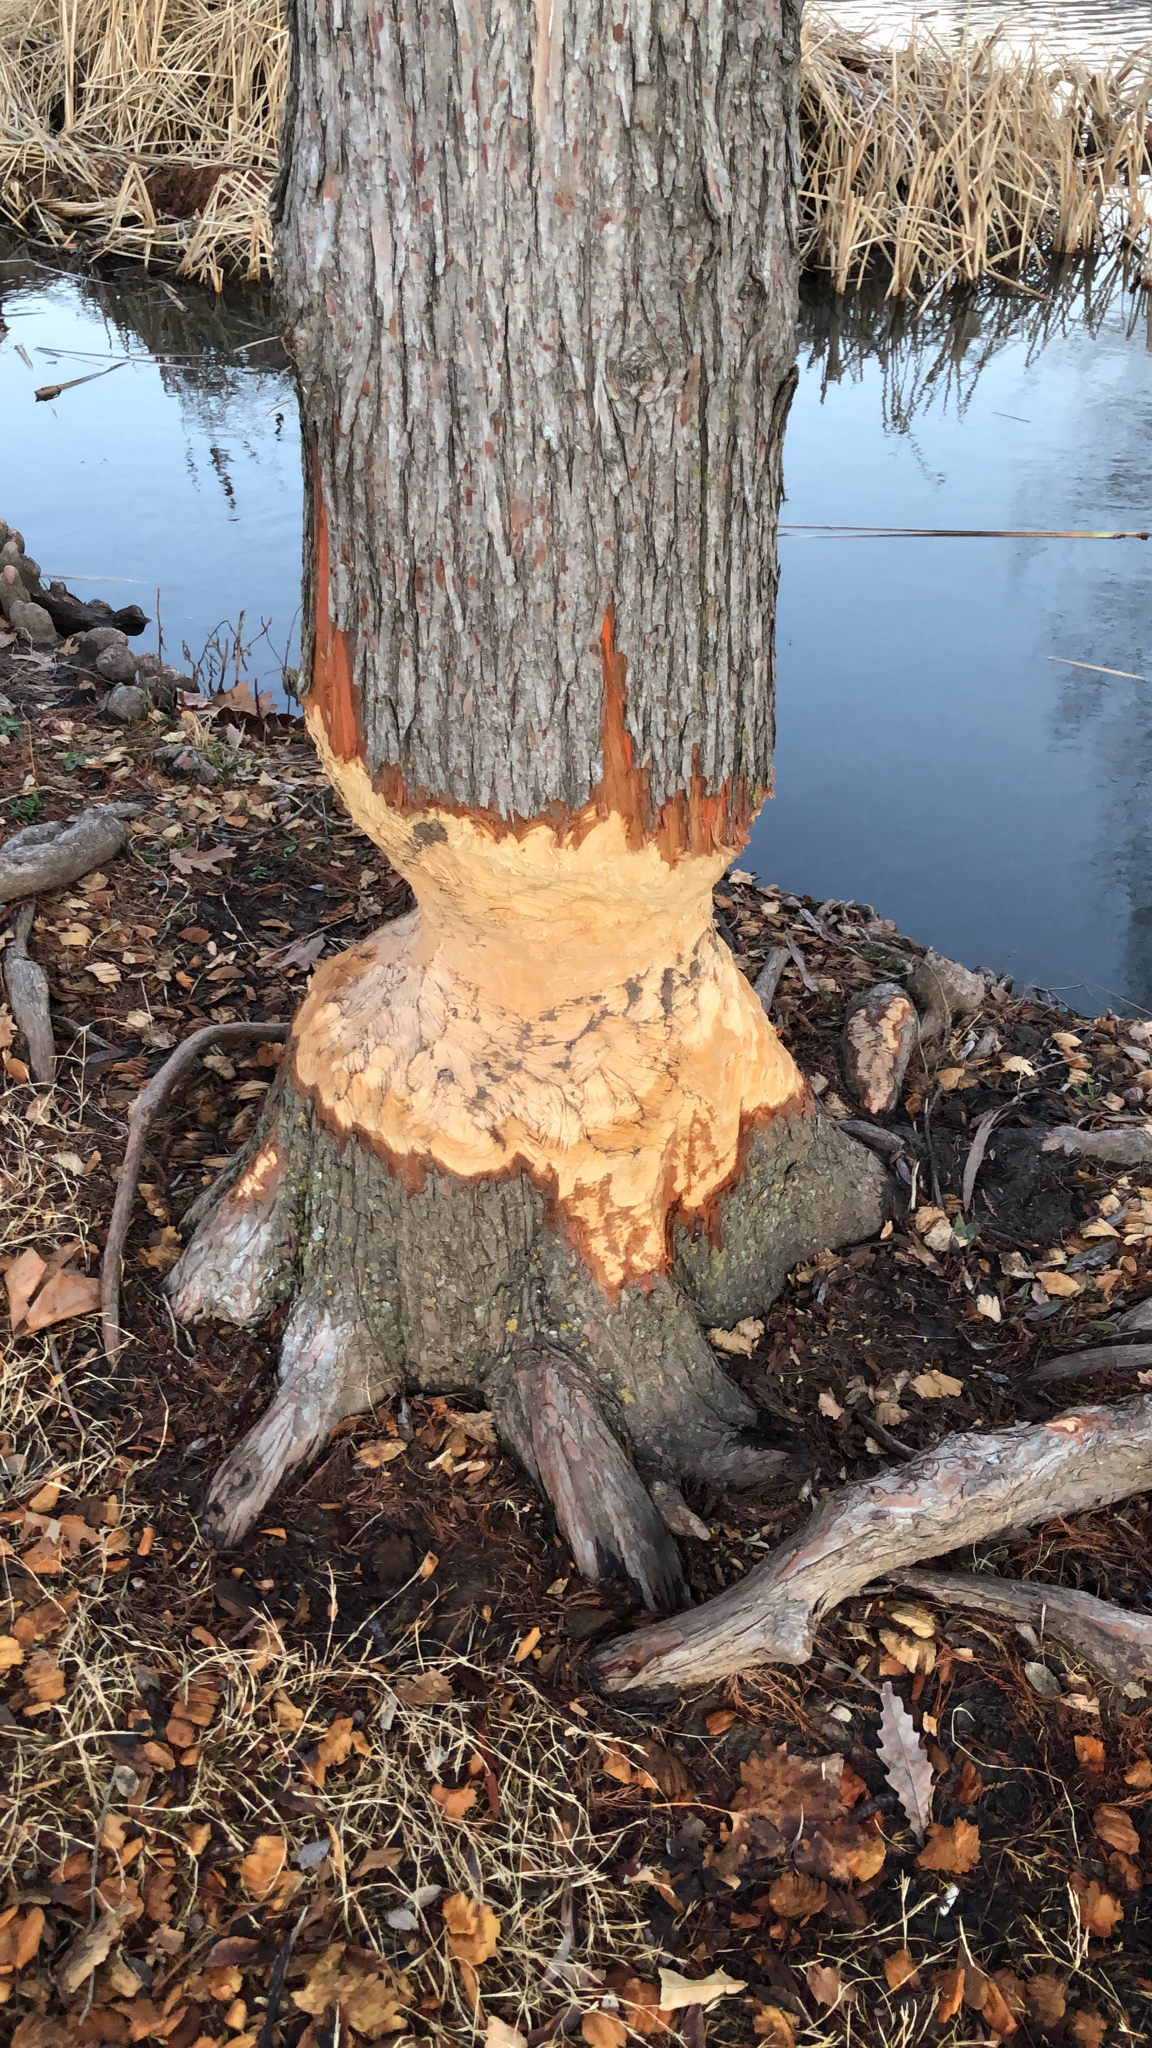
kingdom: Animalia
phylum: Chordata
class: Mammalia
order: Rodentia
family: Castoridae
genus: Castor
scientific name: Castor canadensis
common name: American beaver
